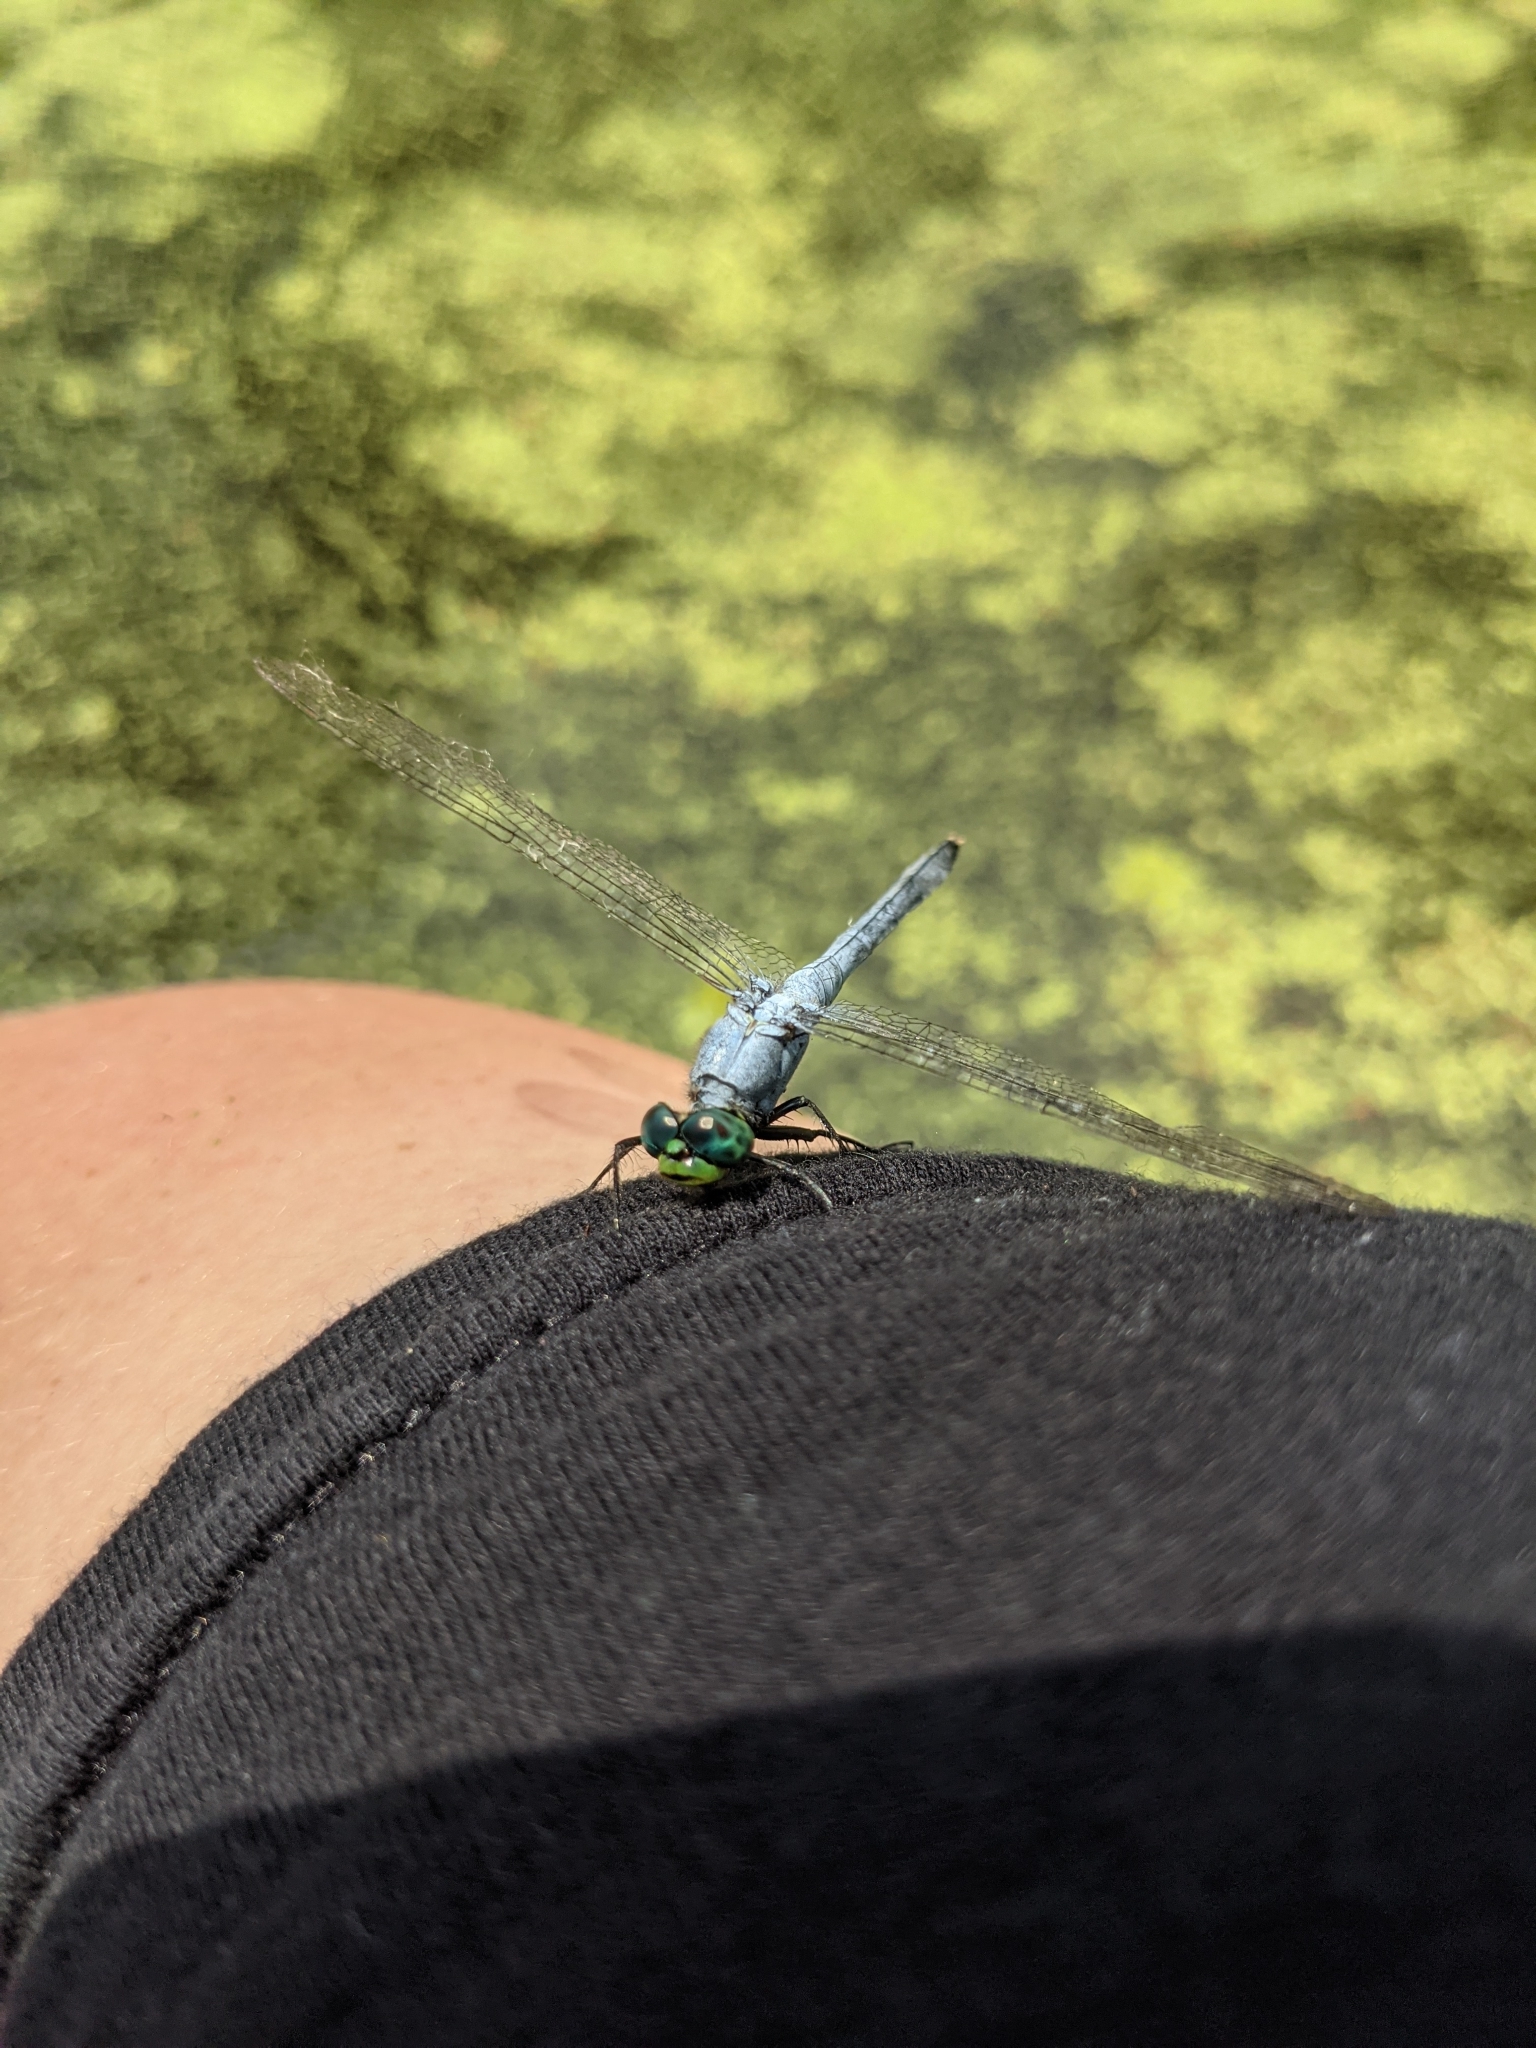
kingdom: Animalia
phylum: Arthropoda
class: Insecta
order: Odonata
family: Libellulidae
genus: Erythemis
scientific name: Erythemis simplicicollis
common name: Eastern pondhawk
